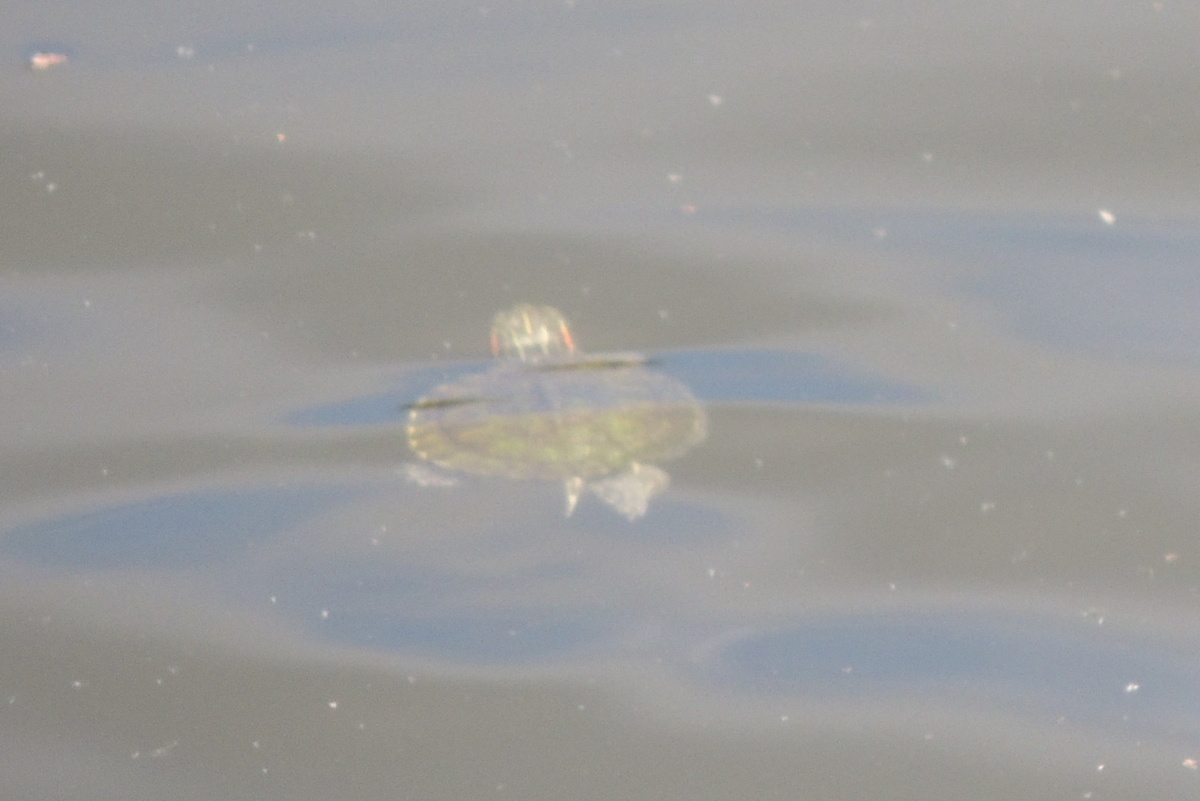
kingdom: Animalia
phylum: Chordata
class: Testudines
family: Emydidae
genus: Trachemys
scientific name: Trachemys scripta
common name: Slider
